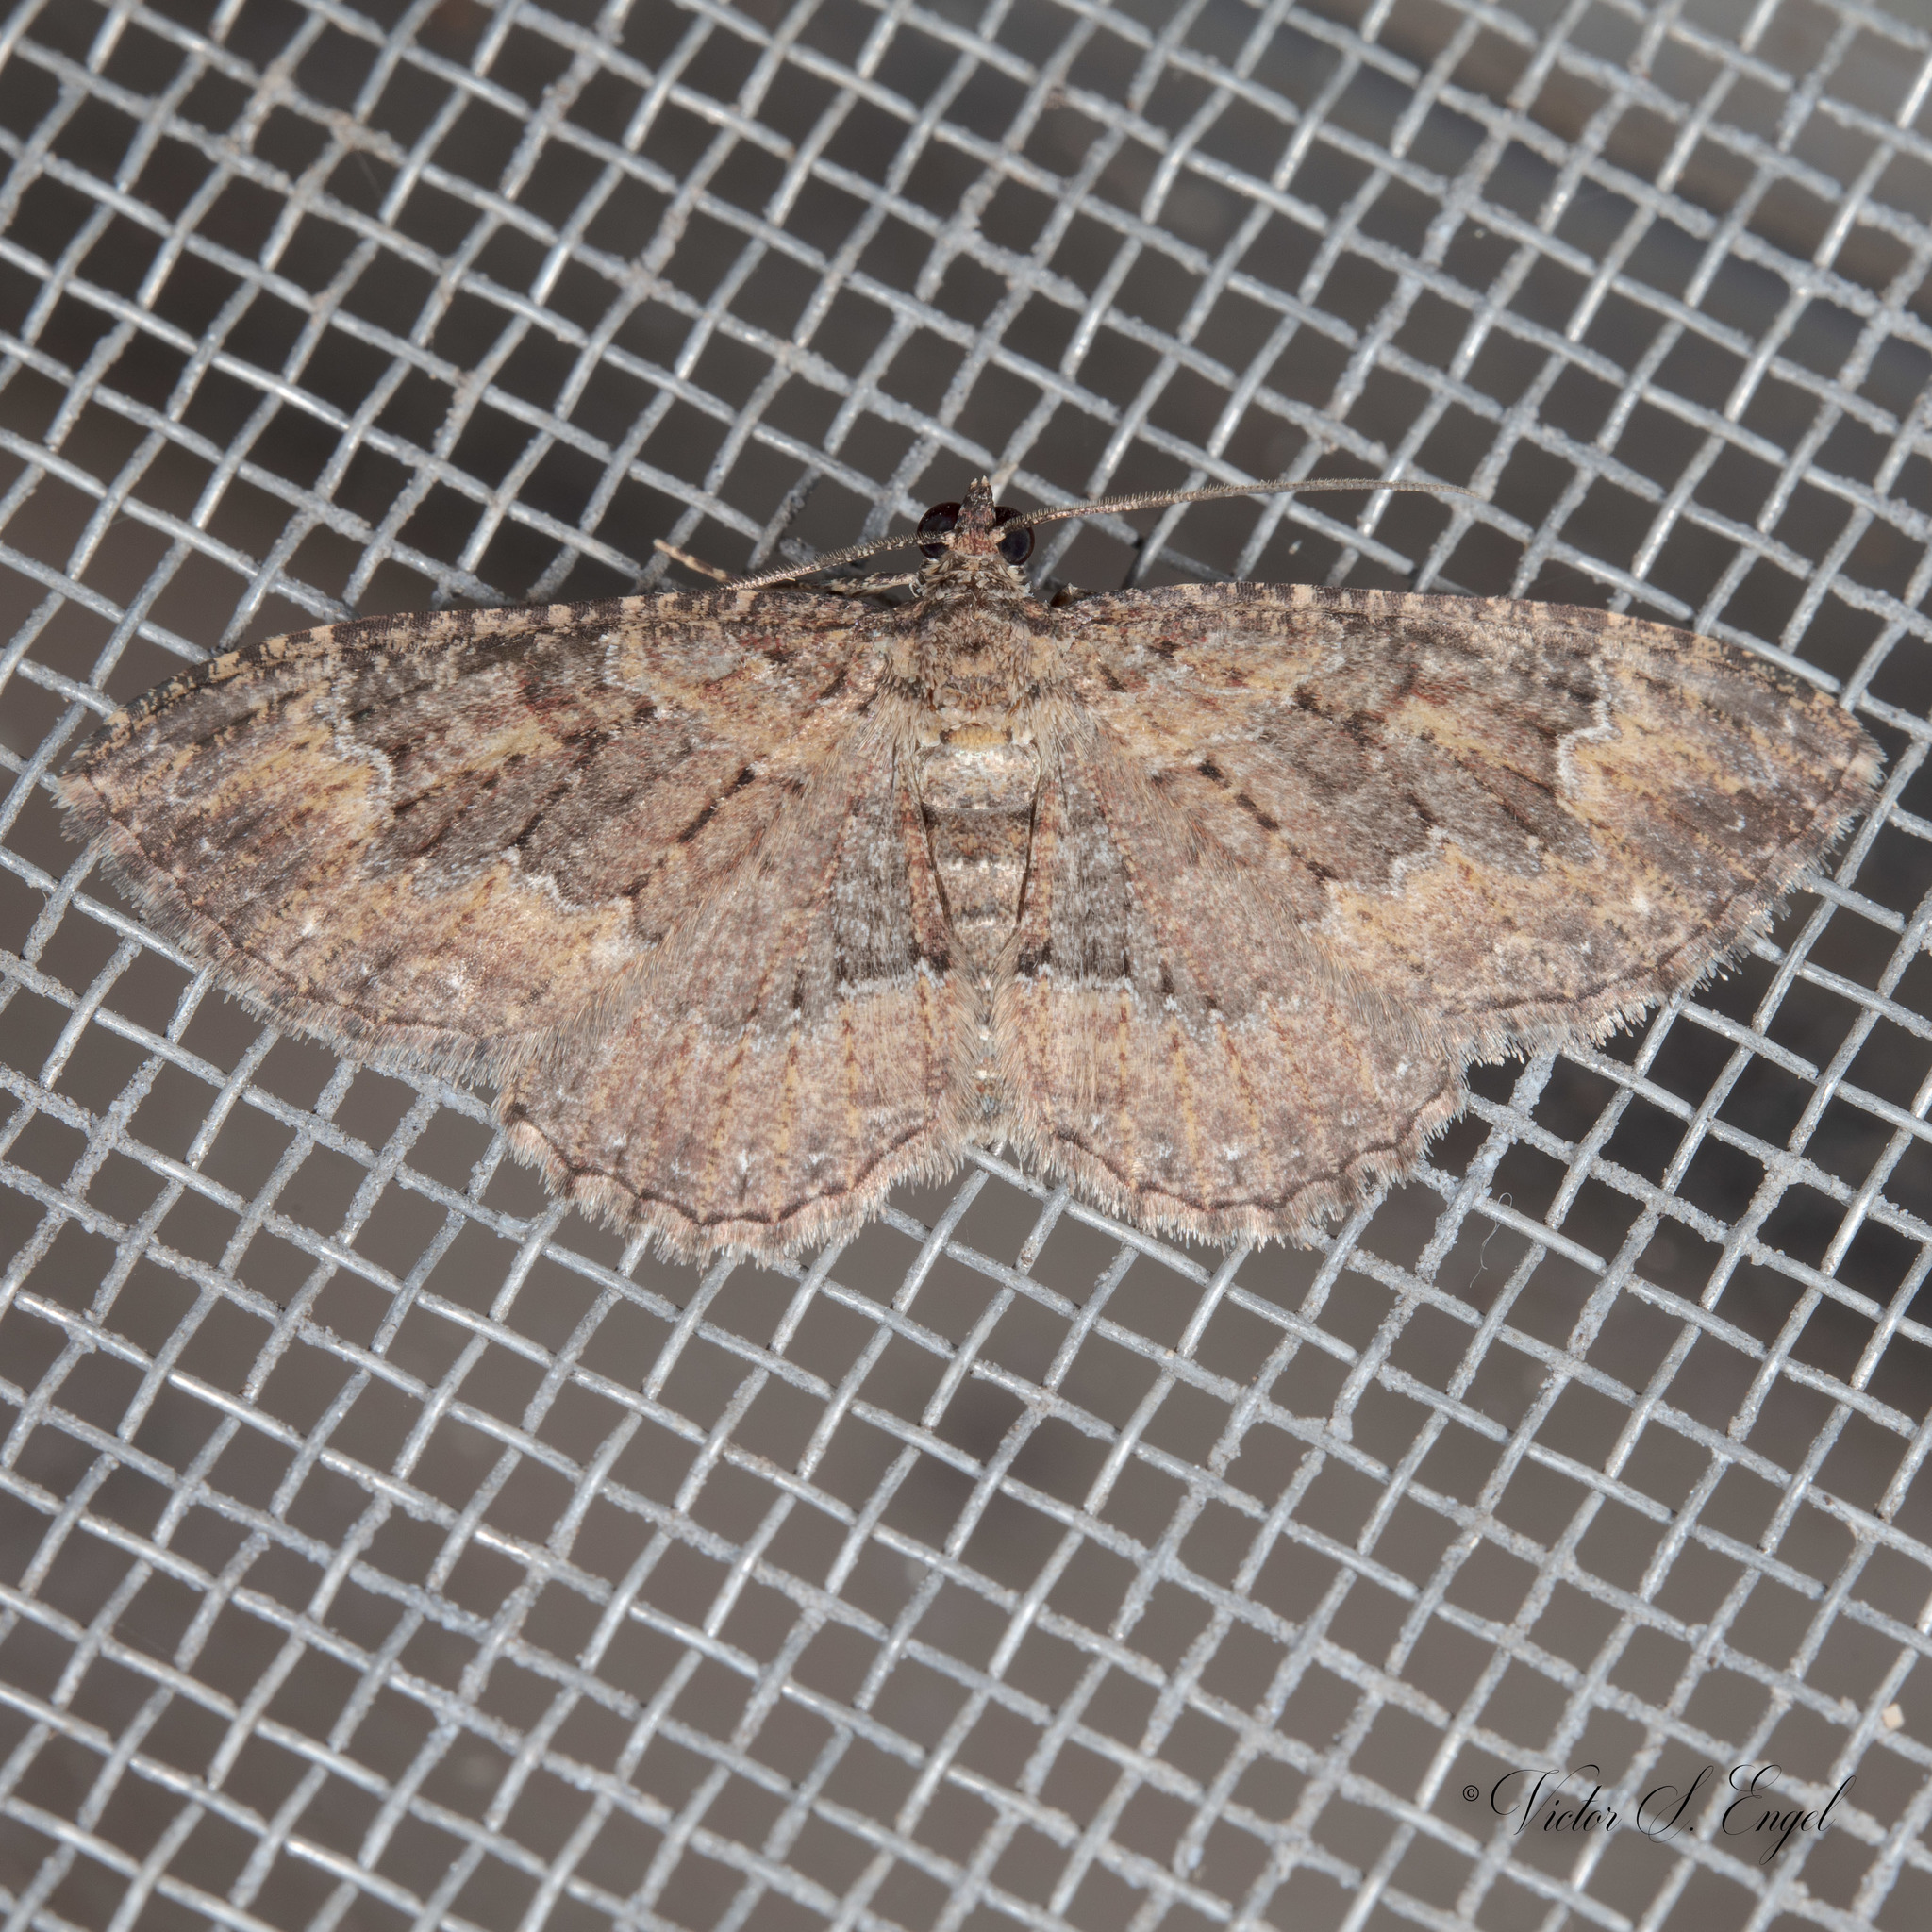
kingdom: Animalia
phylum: Arthropoda
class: Insecta
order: Lepidoptera
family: Geometridae
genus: Disclisioprocta
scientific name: Disclisioprocta stellata
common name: Somber carpet
